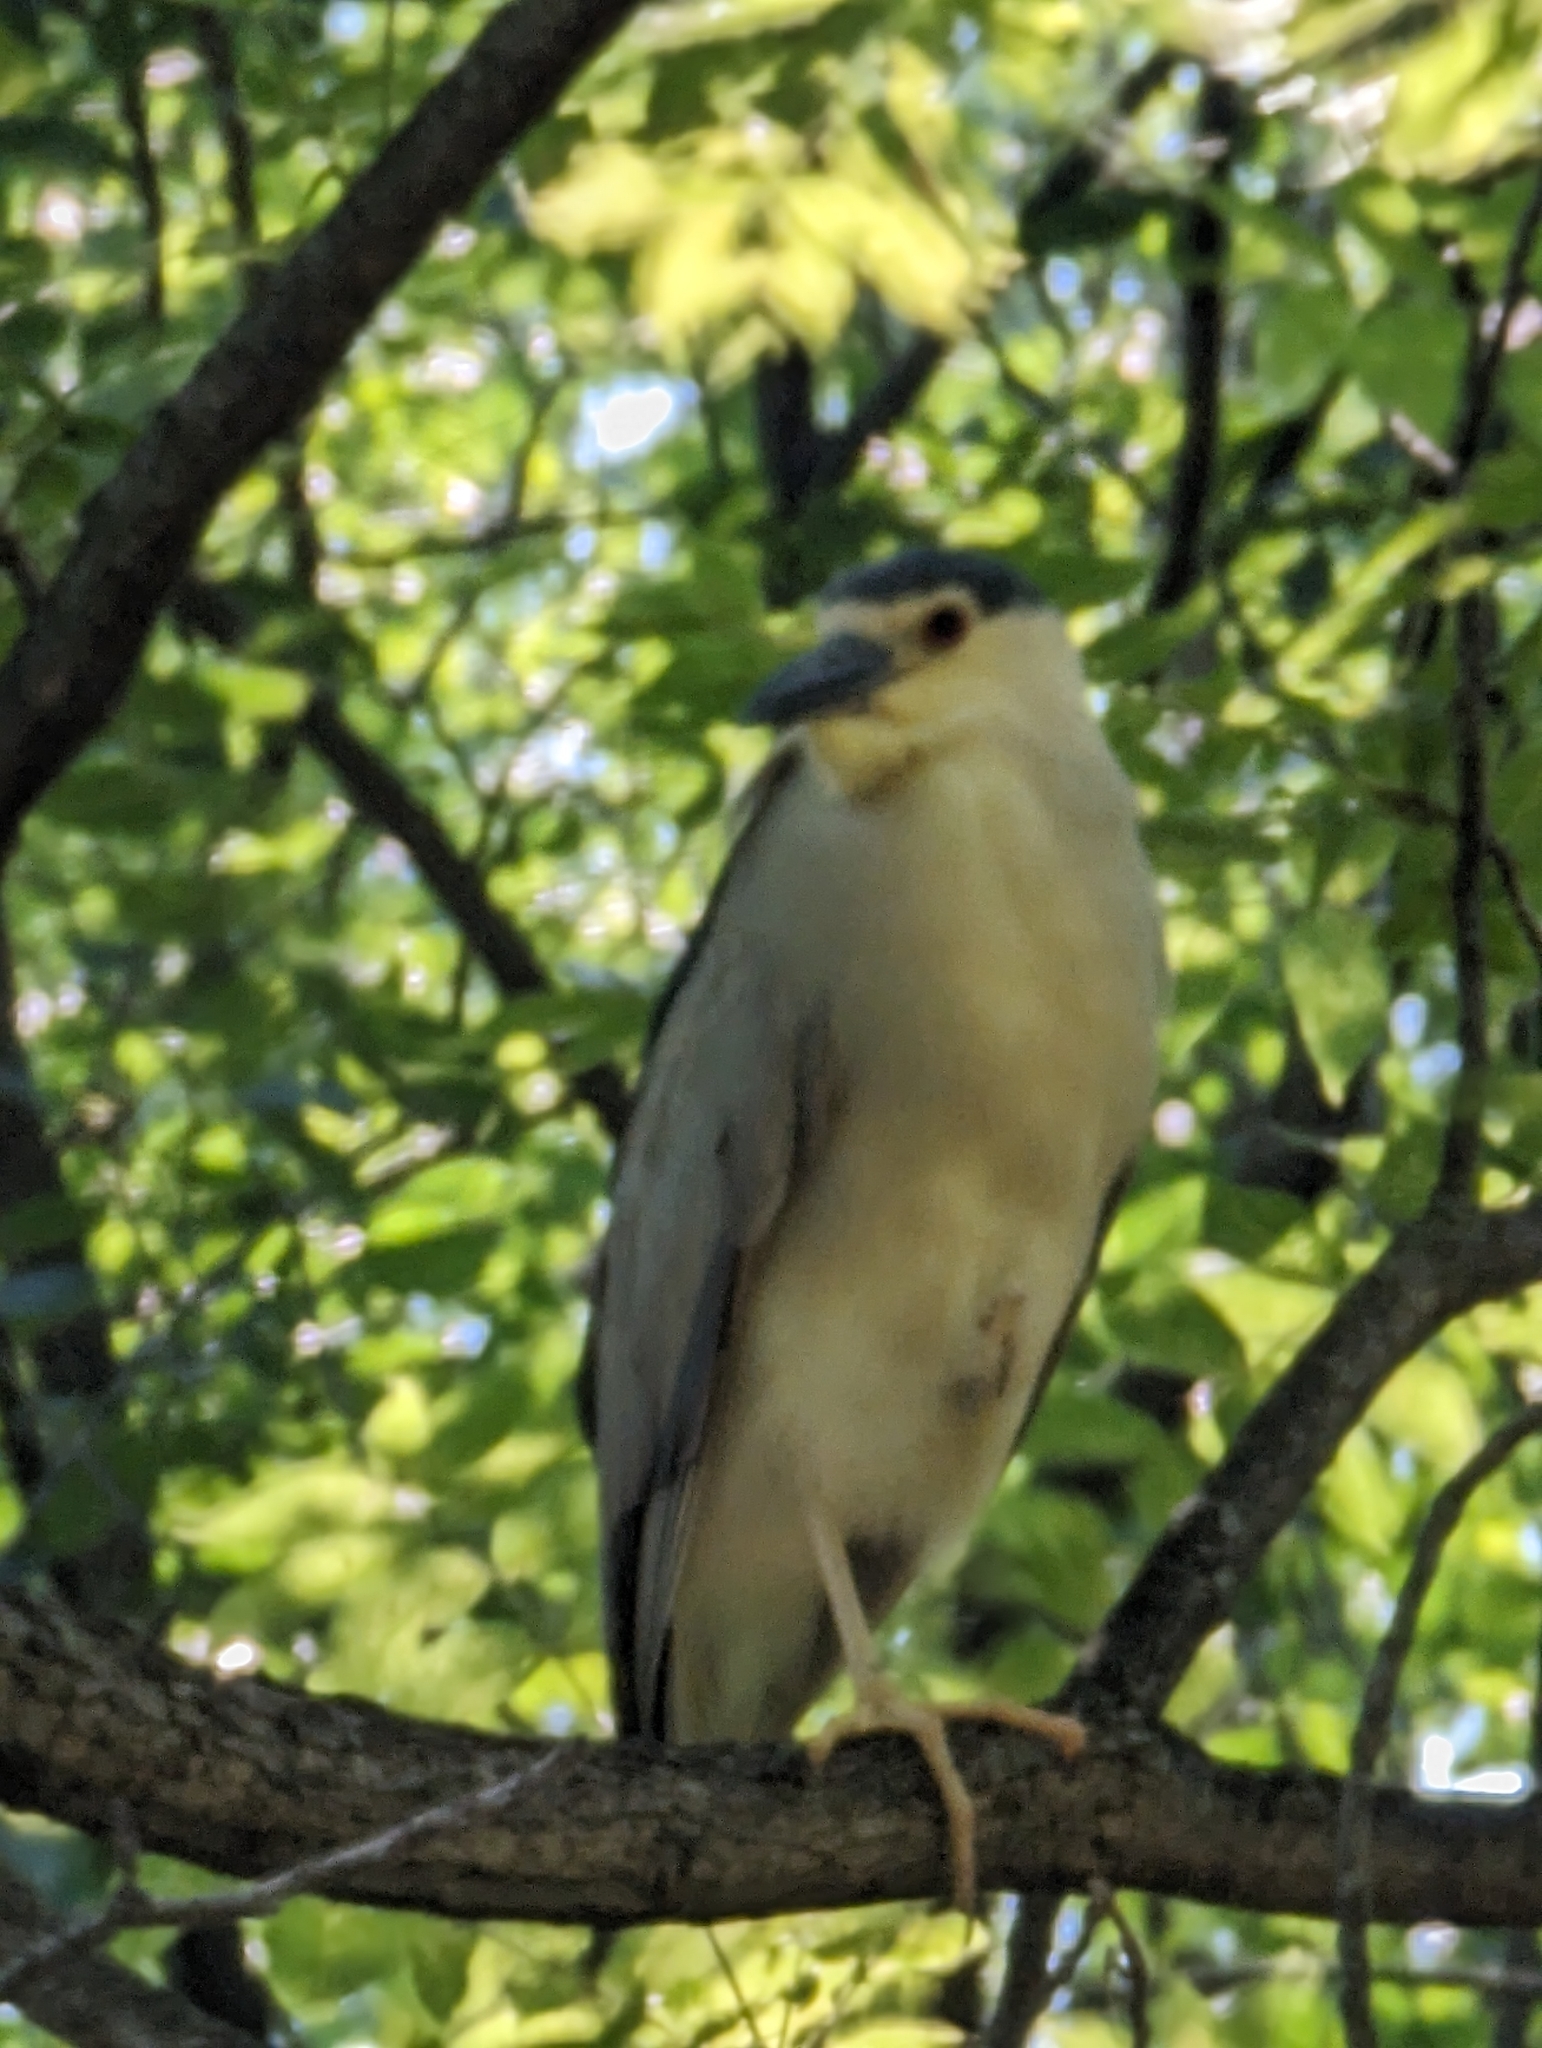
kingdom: Animalia
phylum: Chordata
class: Aves
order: Pelecaniformes
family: Ardeidae
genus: Nycticorax
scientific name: Nycticorax nycticorax
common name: Black-crowned night heron
